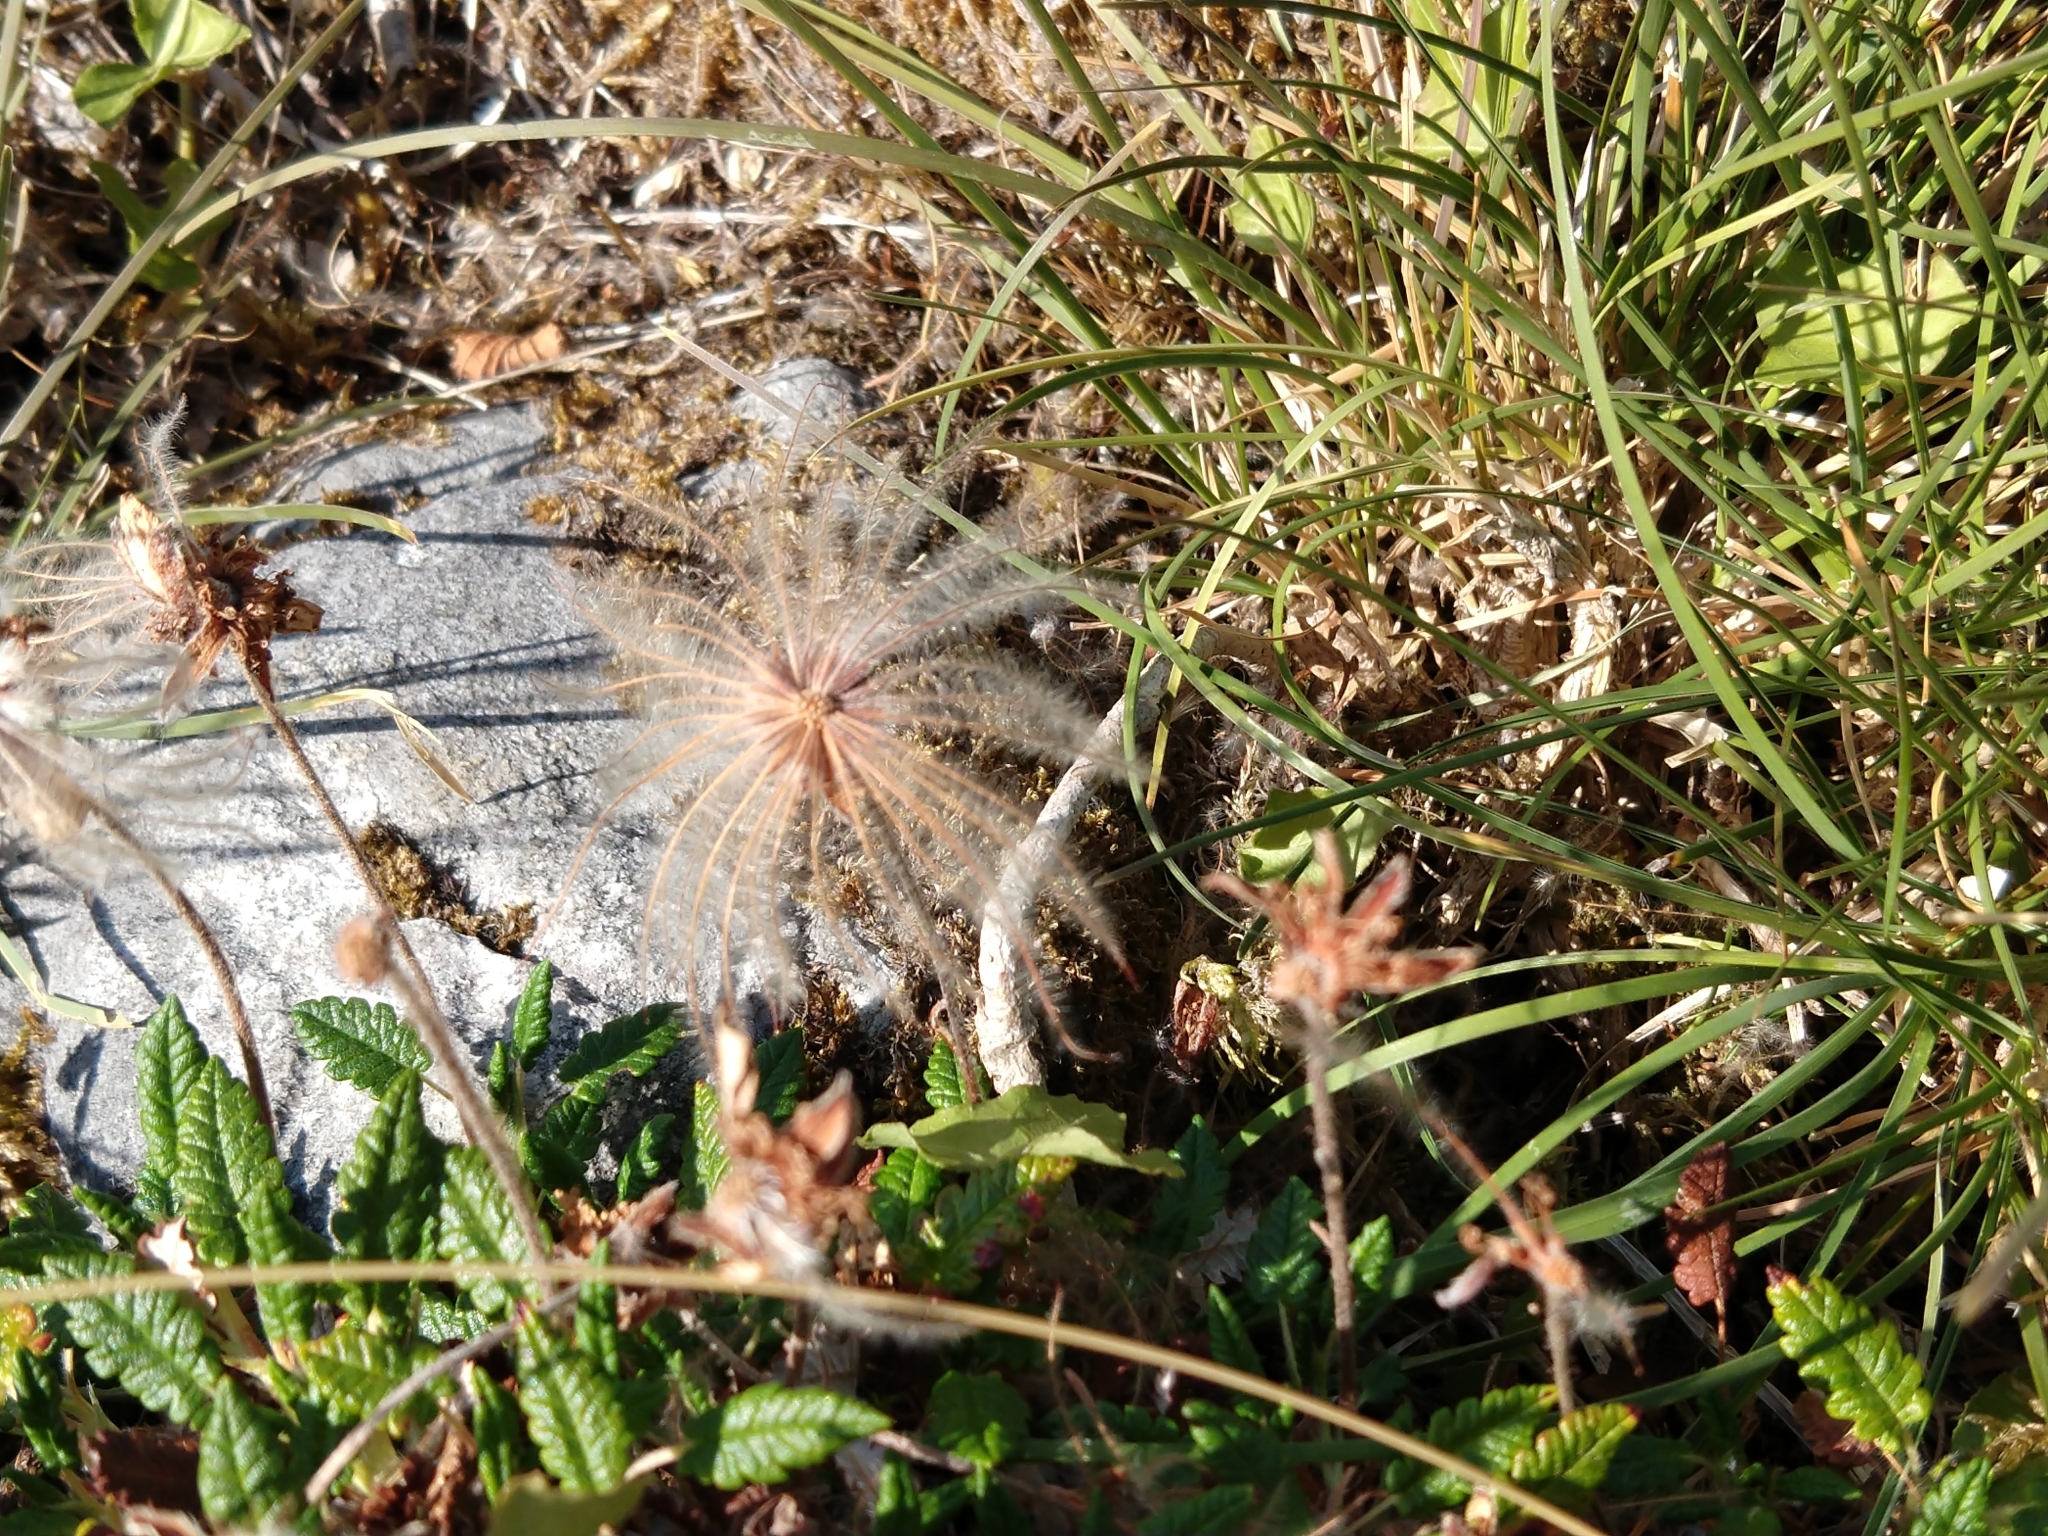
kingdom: Plantae
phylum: Tracheophyta
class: Magnoliopsida
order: Rosales
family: Rosaceae
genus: Dryas
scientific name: Dryas octopetala
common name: Eight-petal mountain-avens
